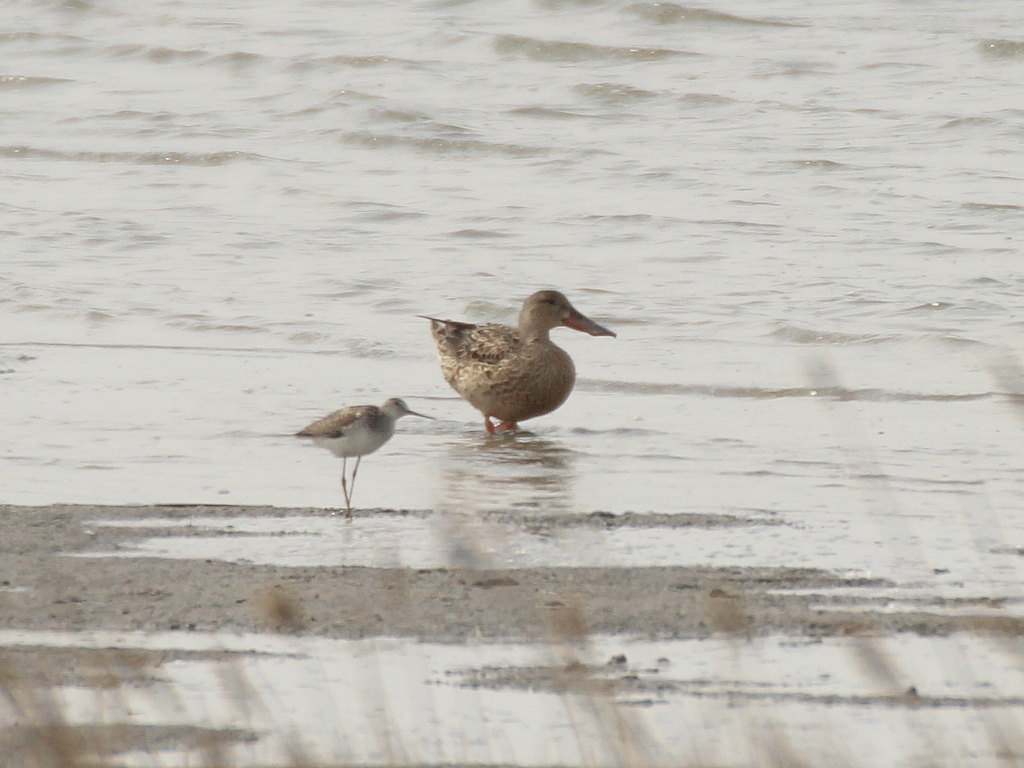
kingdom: Animalia
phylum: Chordata
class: Aves
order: Anseriformes
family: Anatidae
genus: Spatula
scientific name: Spatula clypeata
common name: Northern shoveler
